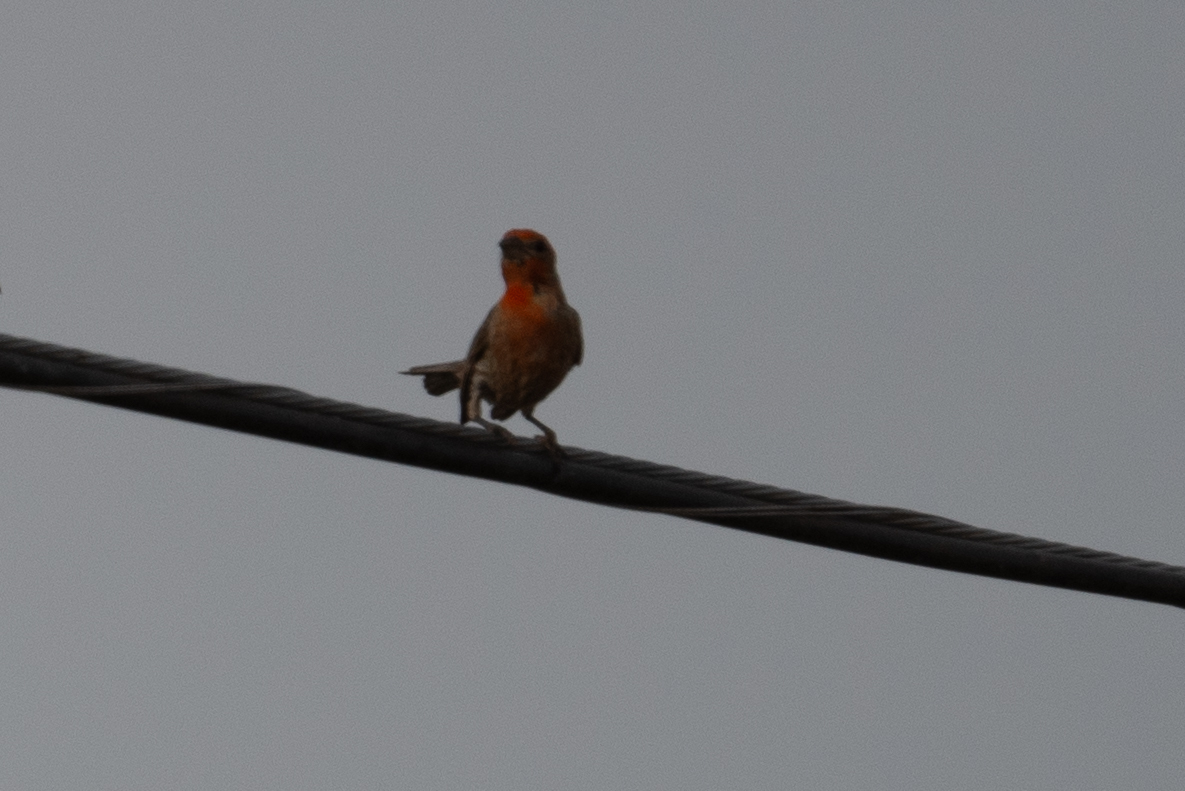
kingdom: Animalia
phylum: Chordata
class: Aves
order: Passeriformes
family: Fringillidae
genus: Haemorhous
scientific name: Haemorhous mexicanus
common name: House finch
